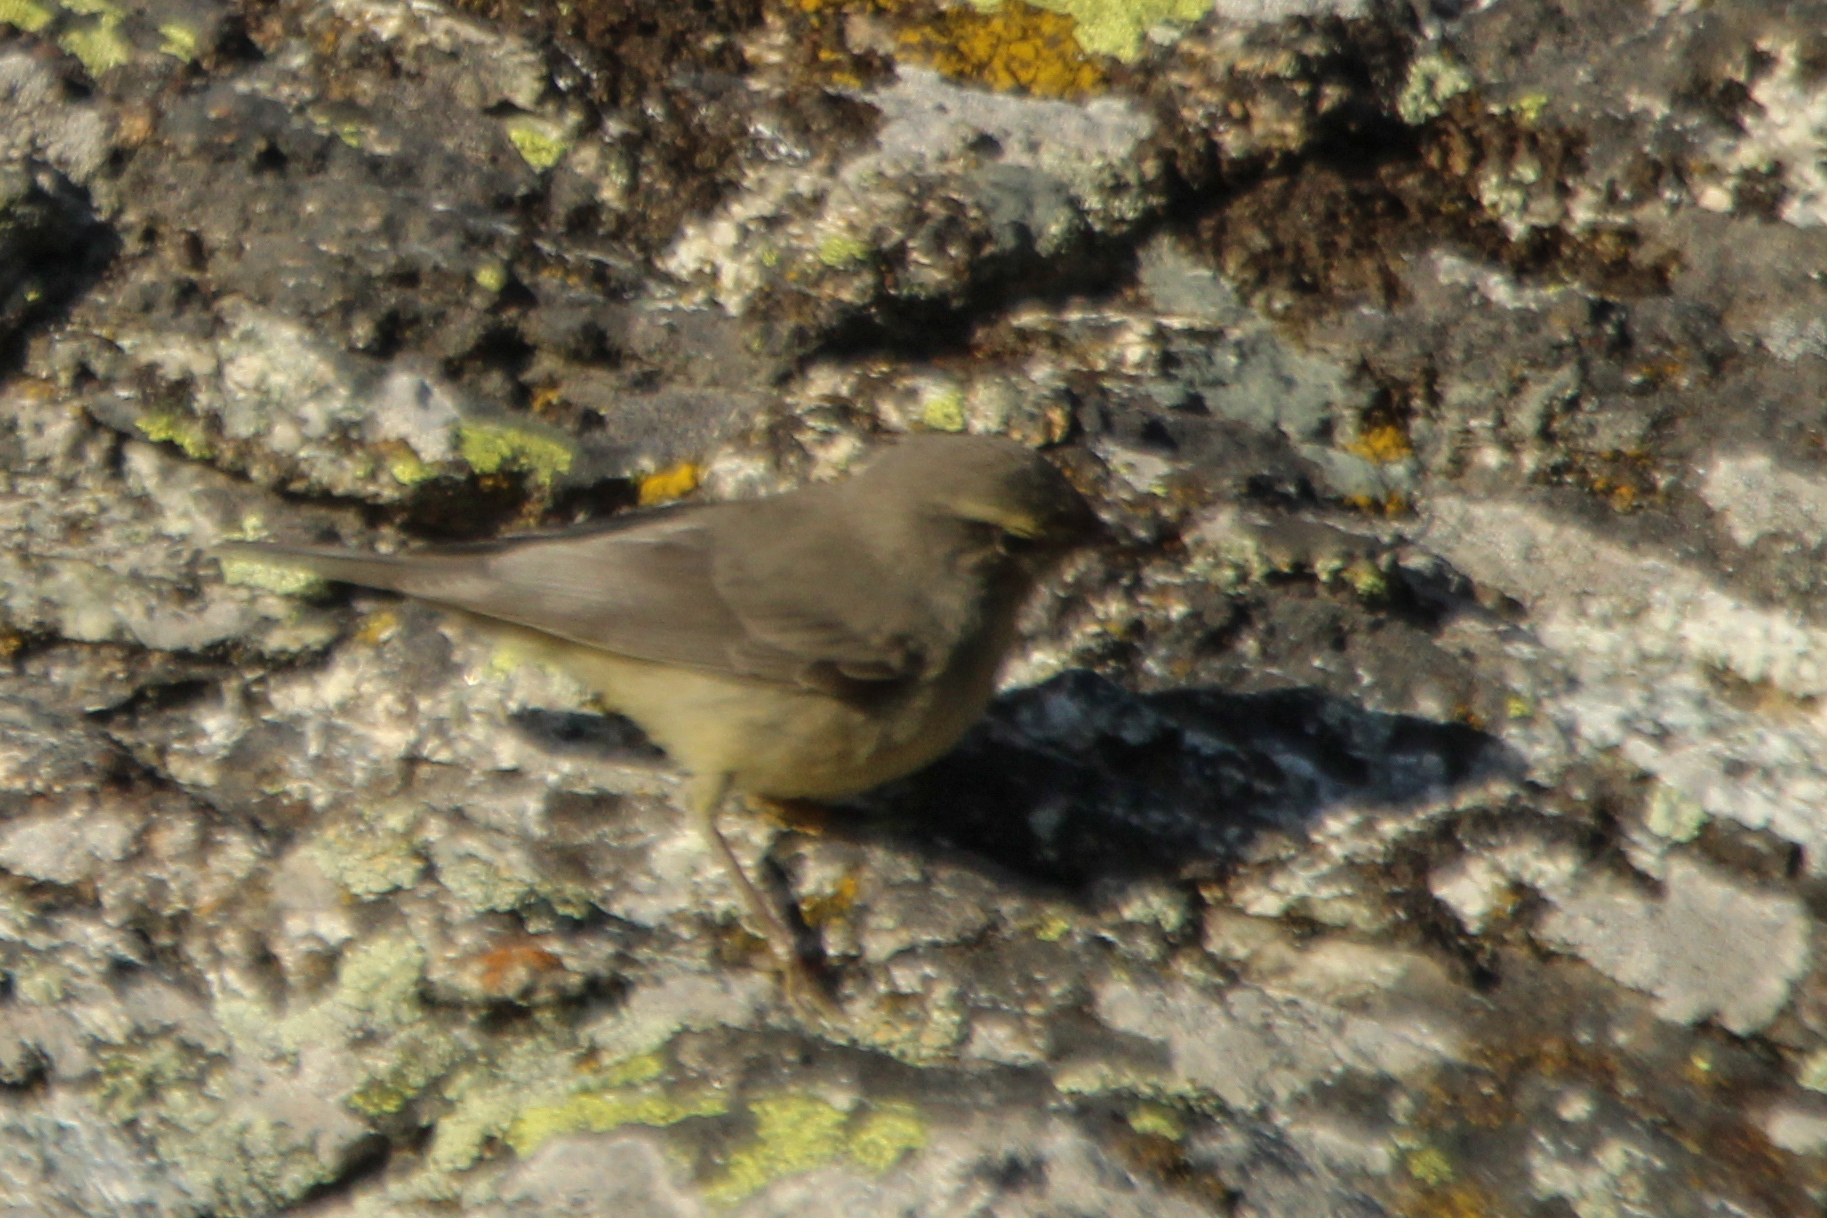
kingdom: Animalia
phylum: Chordata
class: Aves
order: Passeriformes
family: Phylloscopidae
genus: Phylloscopus
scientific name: Phylloscopus griseolus
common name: Sulphur-bellied warbler
